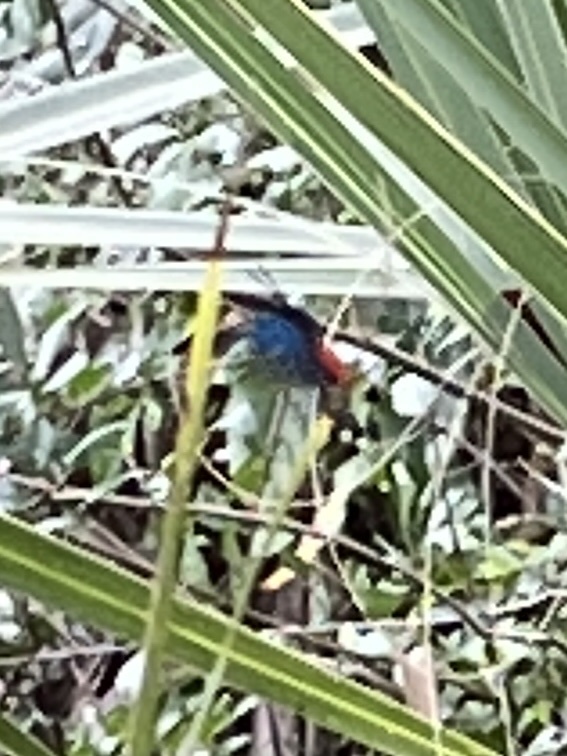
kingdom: Animalia
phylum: Arthropoda
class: Insecta
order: Lepidoptera
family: Lycaenidae
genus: Eumaeus
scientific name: Eumaeus atala
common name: Atala
